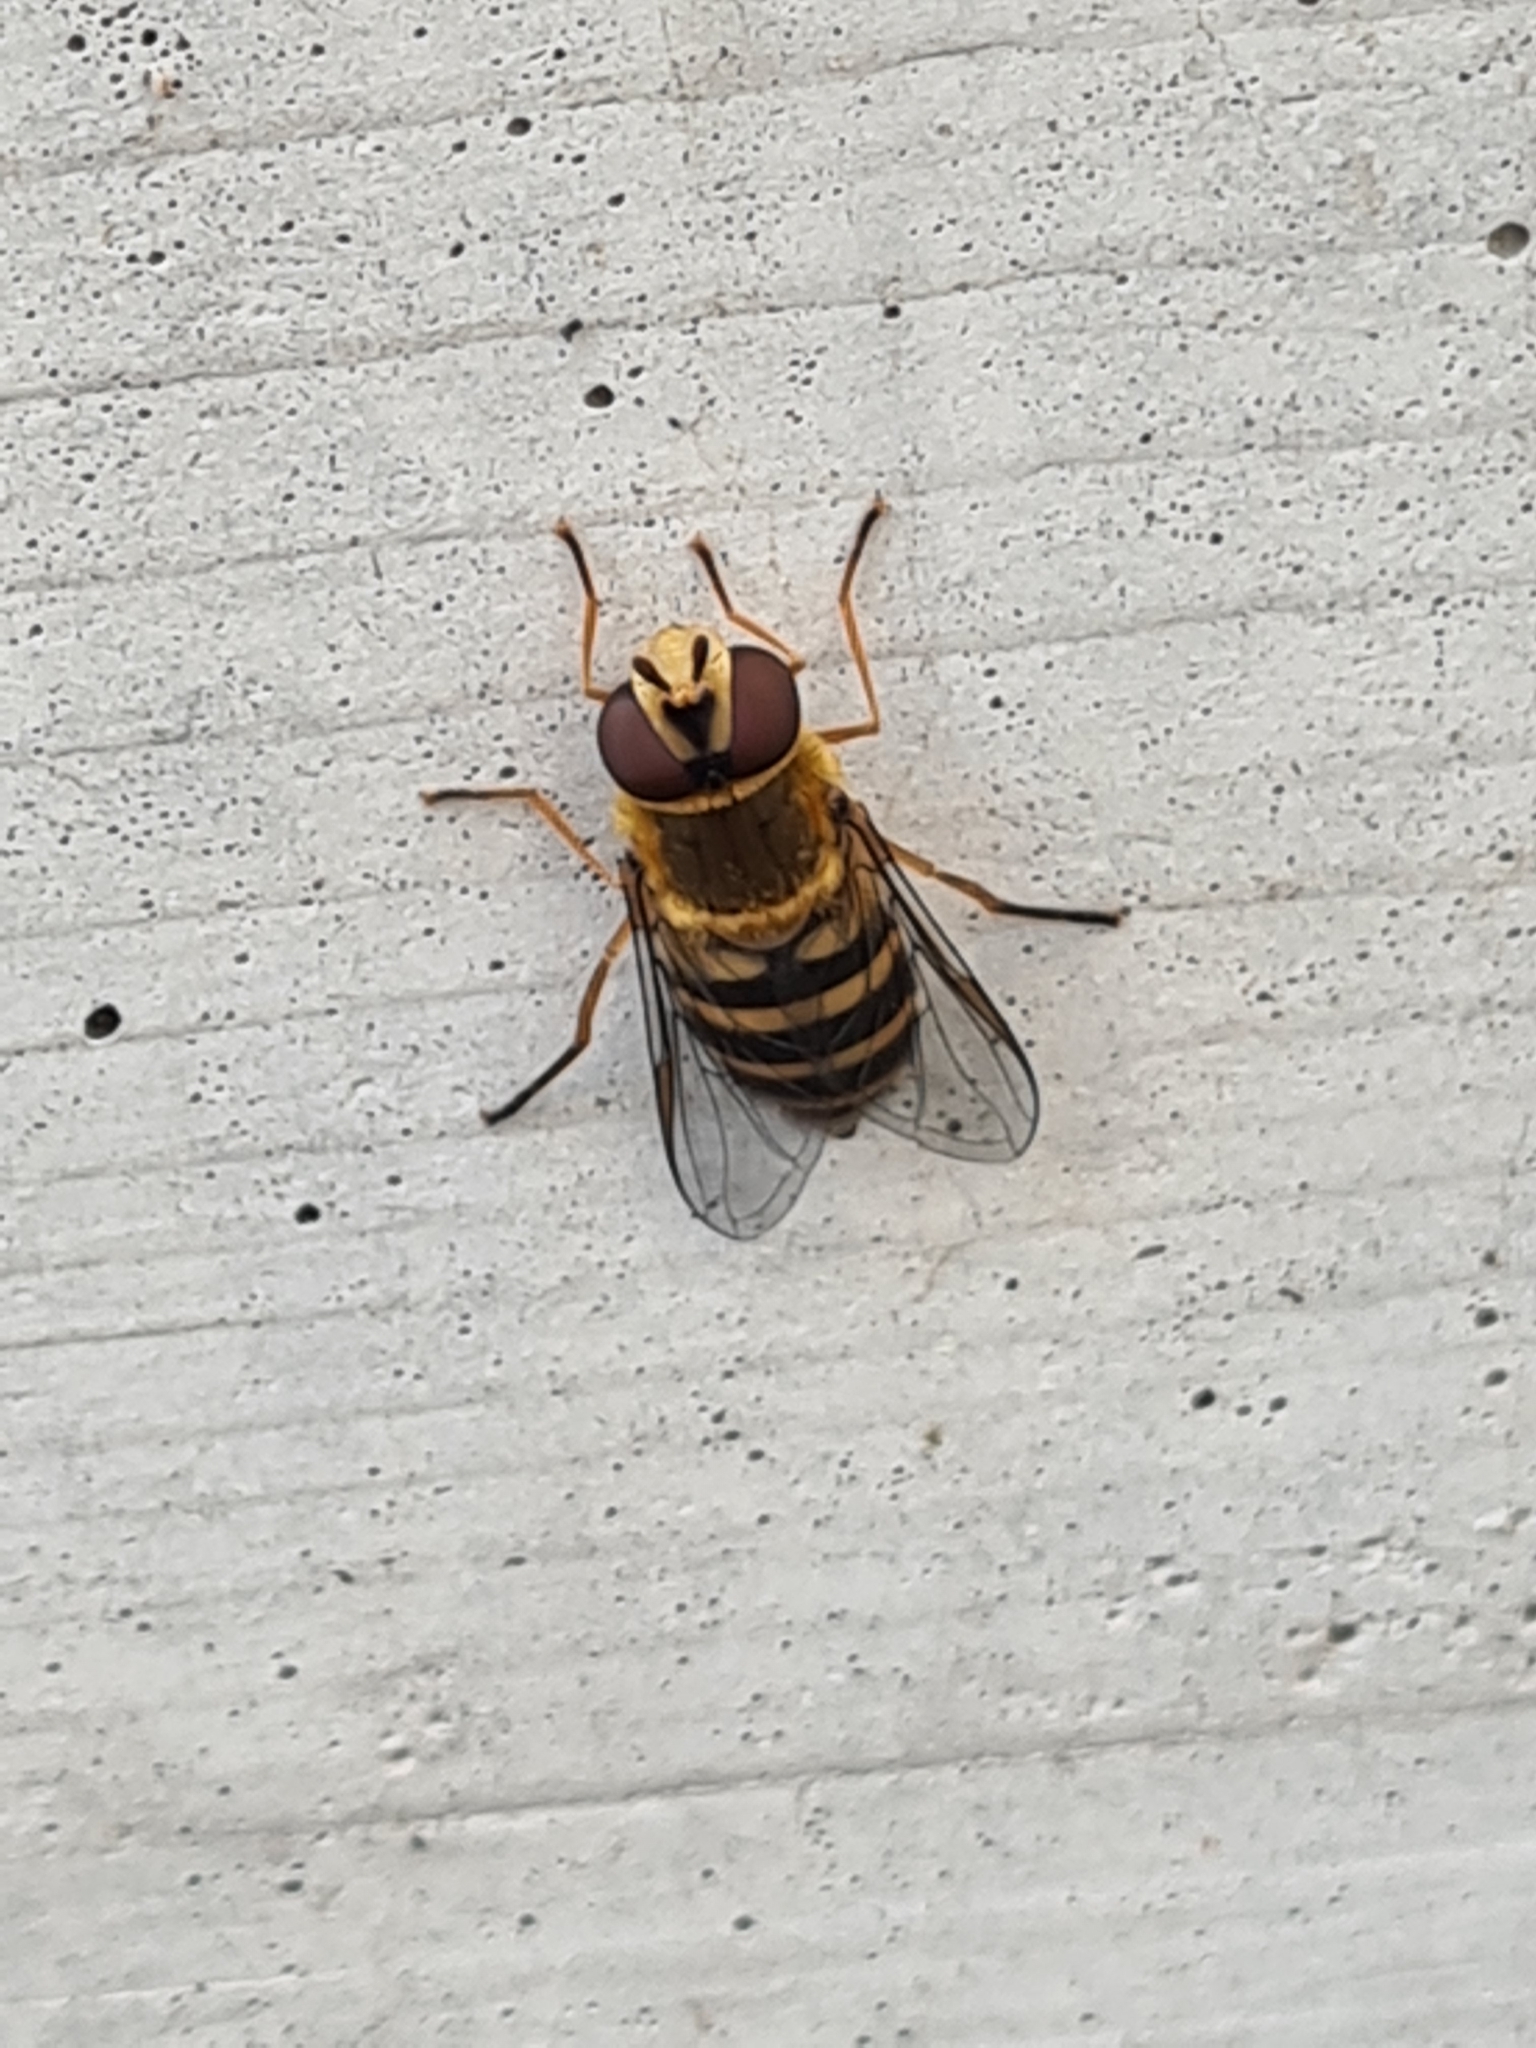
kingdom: Animalia
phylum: Arthropoda
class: Insecta
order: Diptera
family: Syrphidae
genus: Syrphus
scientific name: Syrphus
